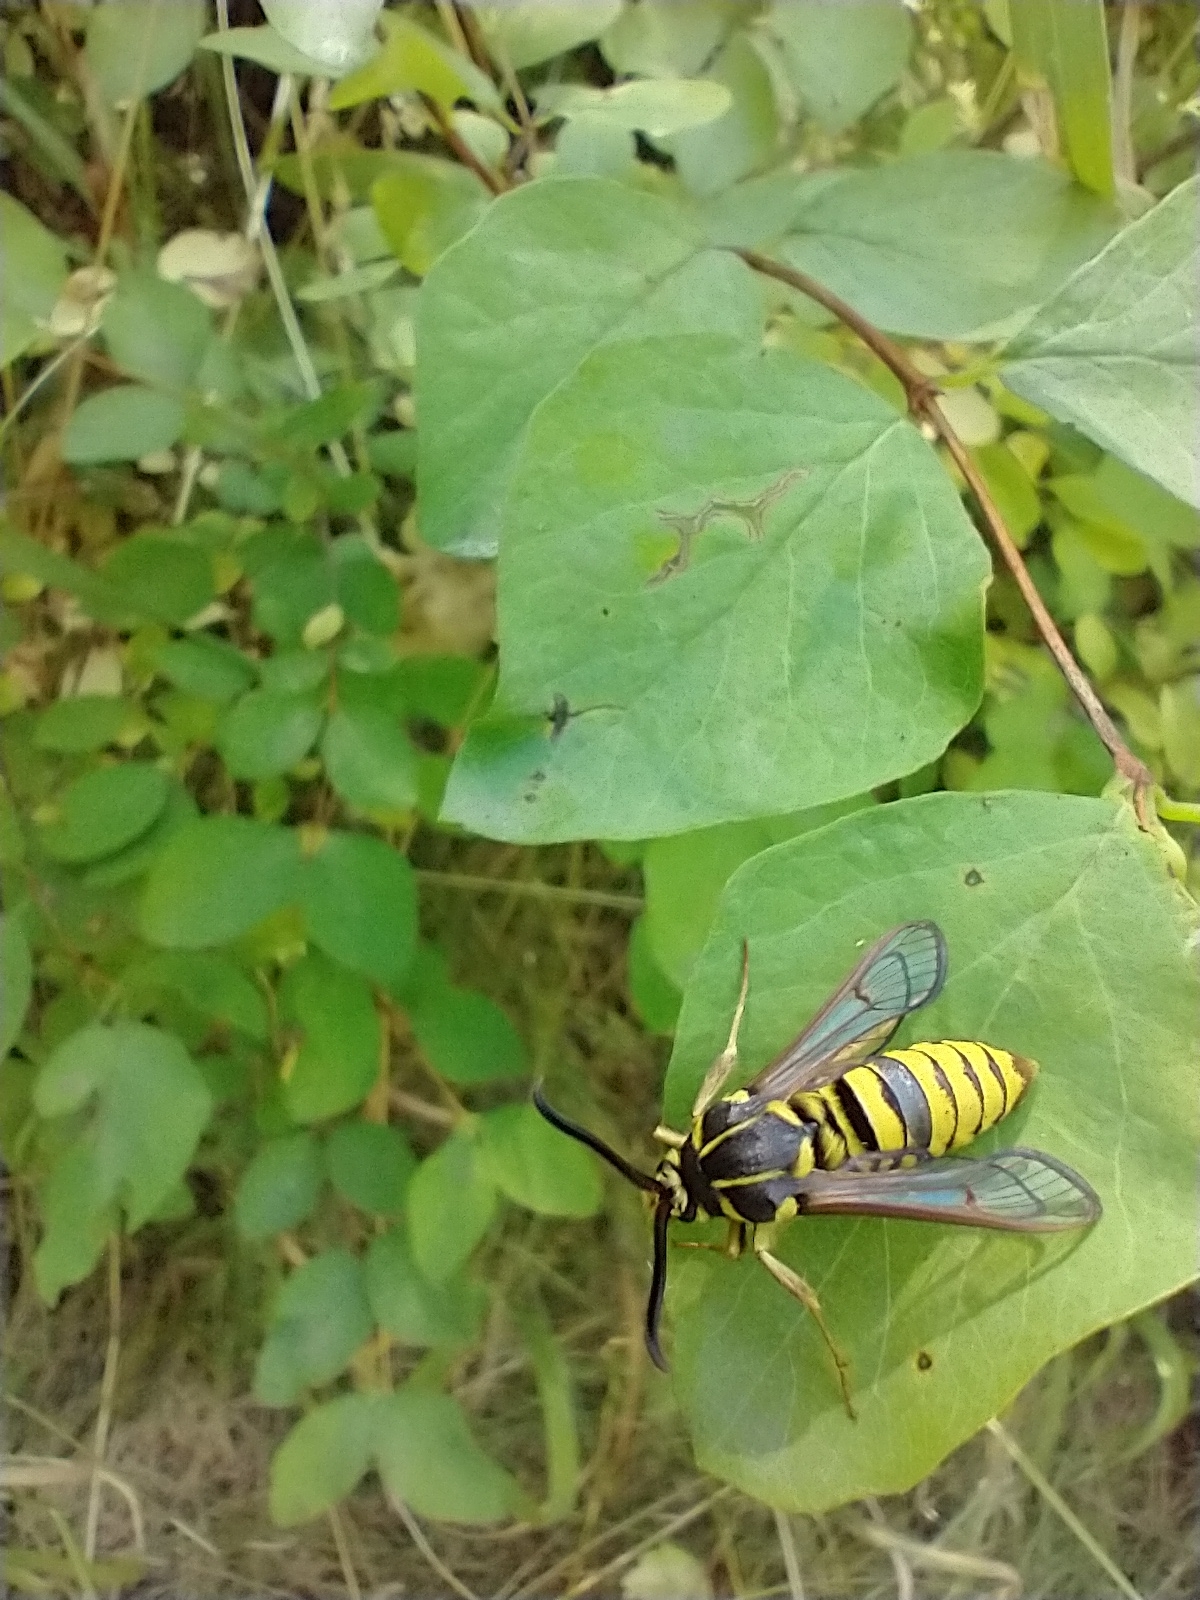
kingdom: Animalia
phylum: Arthropoda
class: Insecta
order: Lepidoptera
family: Sesiidae
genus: Sesia
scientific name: Sesia tibiale
